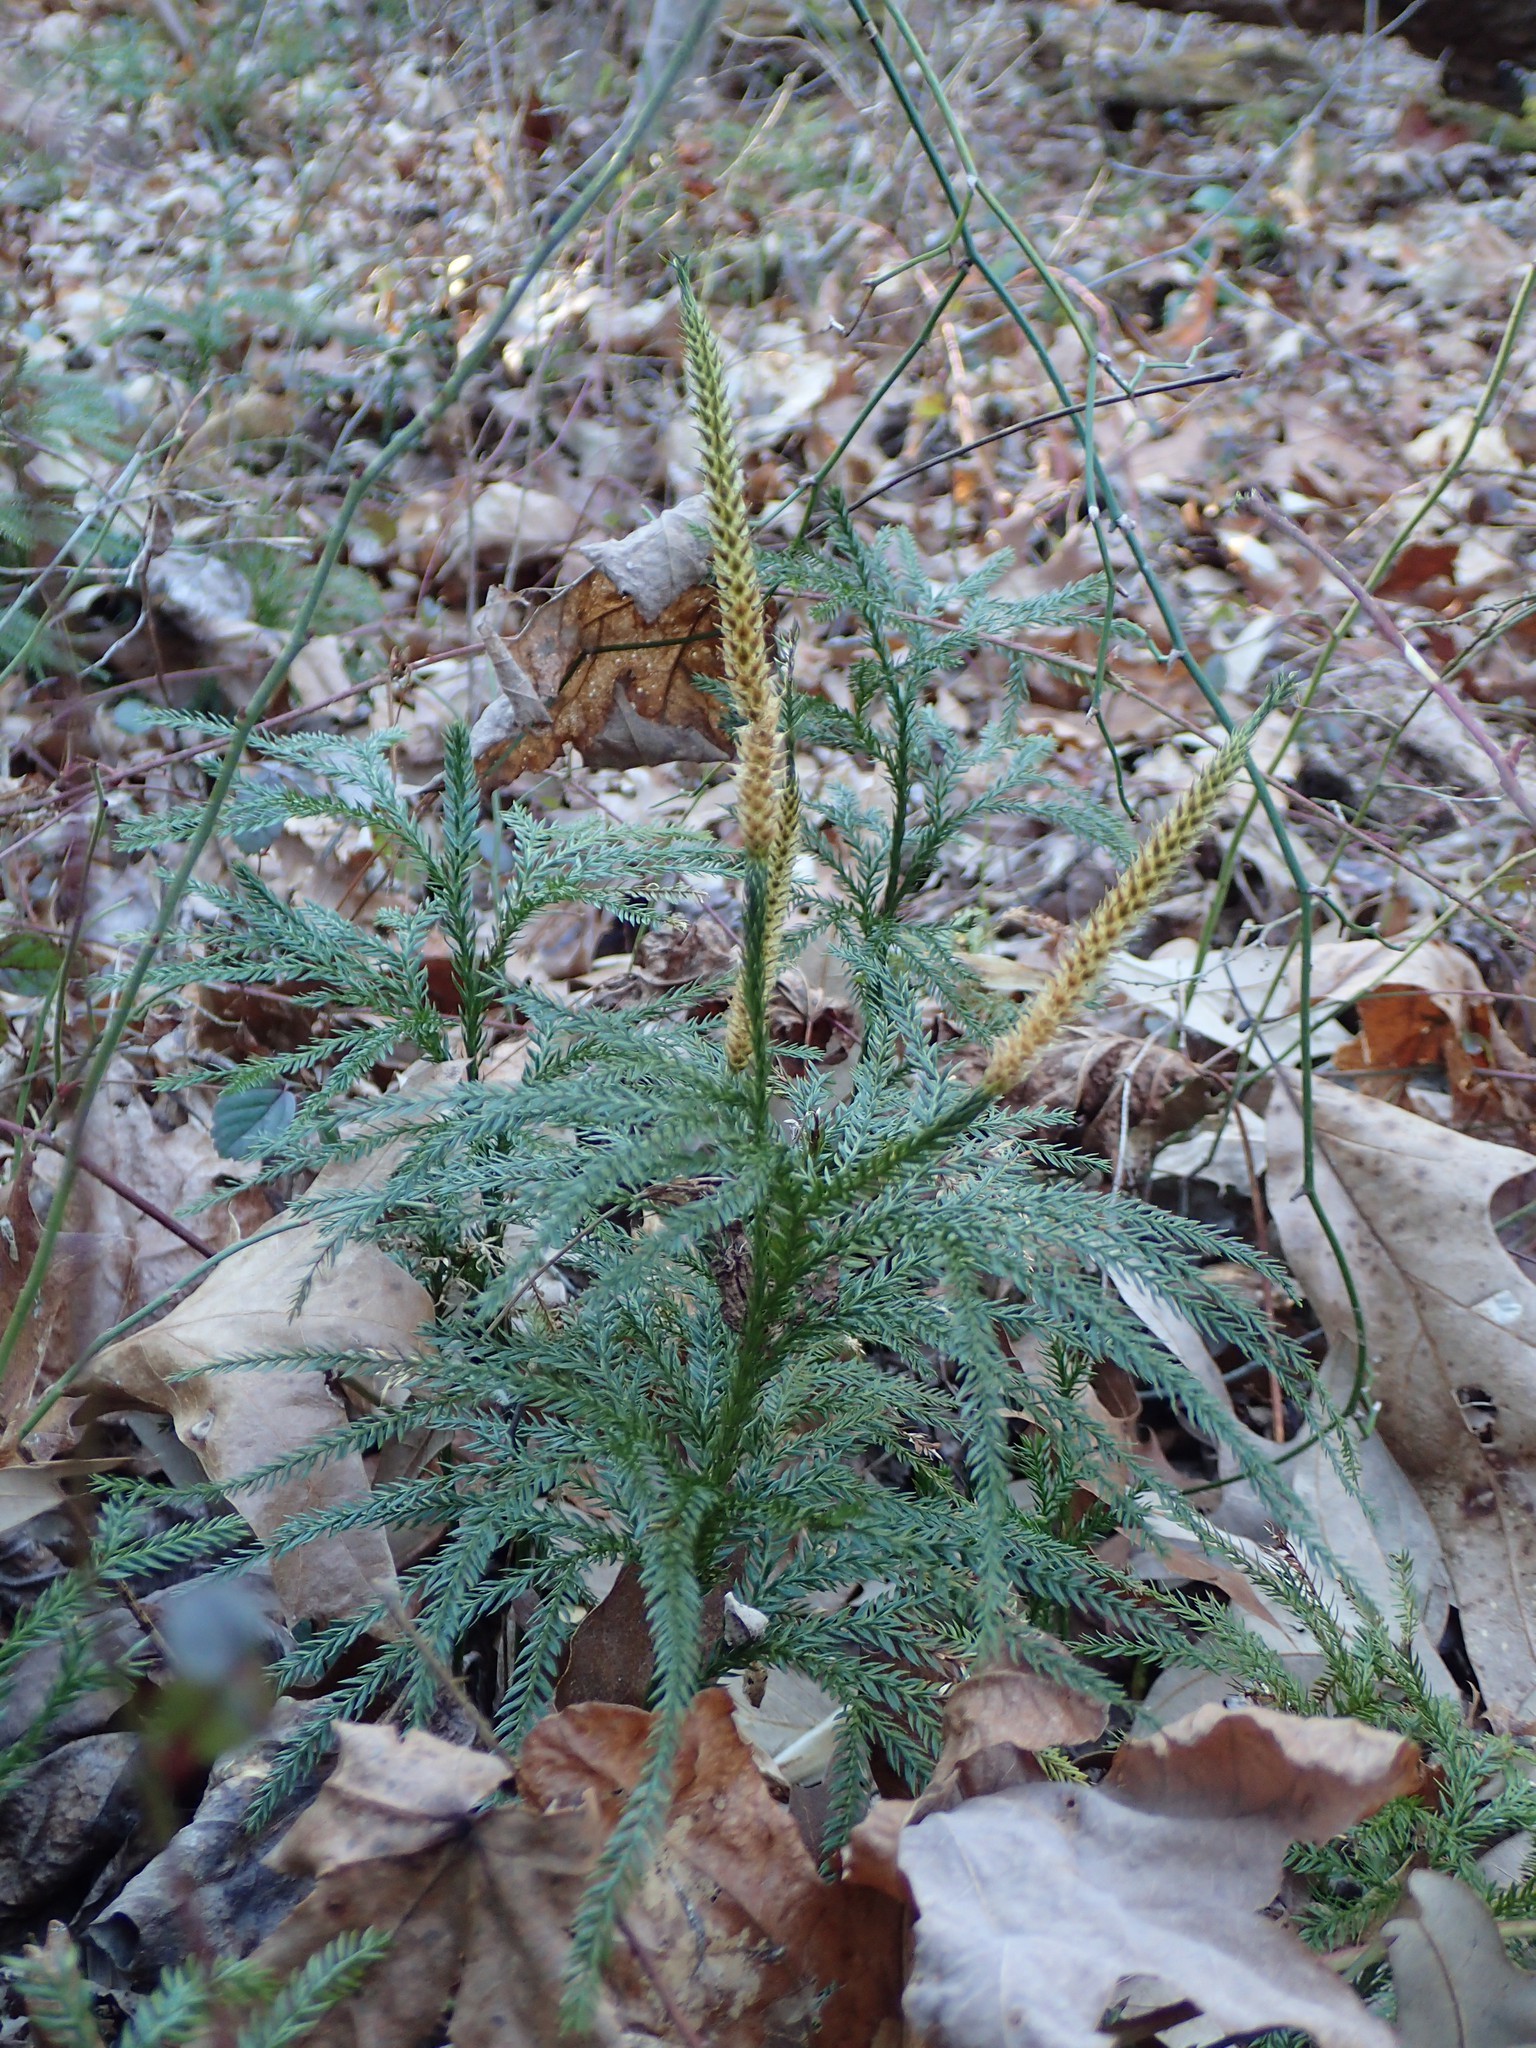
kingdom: Plantae
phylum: Tracheophyta
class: Lycopodiopsida
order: Lycopodiales
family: Lycopodiaceae
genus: Dendrolycopodium
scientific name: Dendrolycopodium obscurum
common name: Common ground-pine
